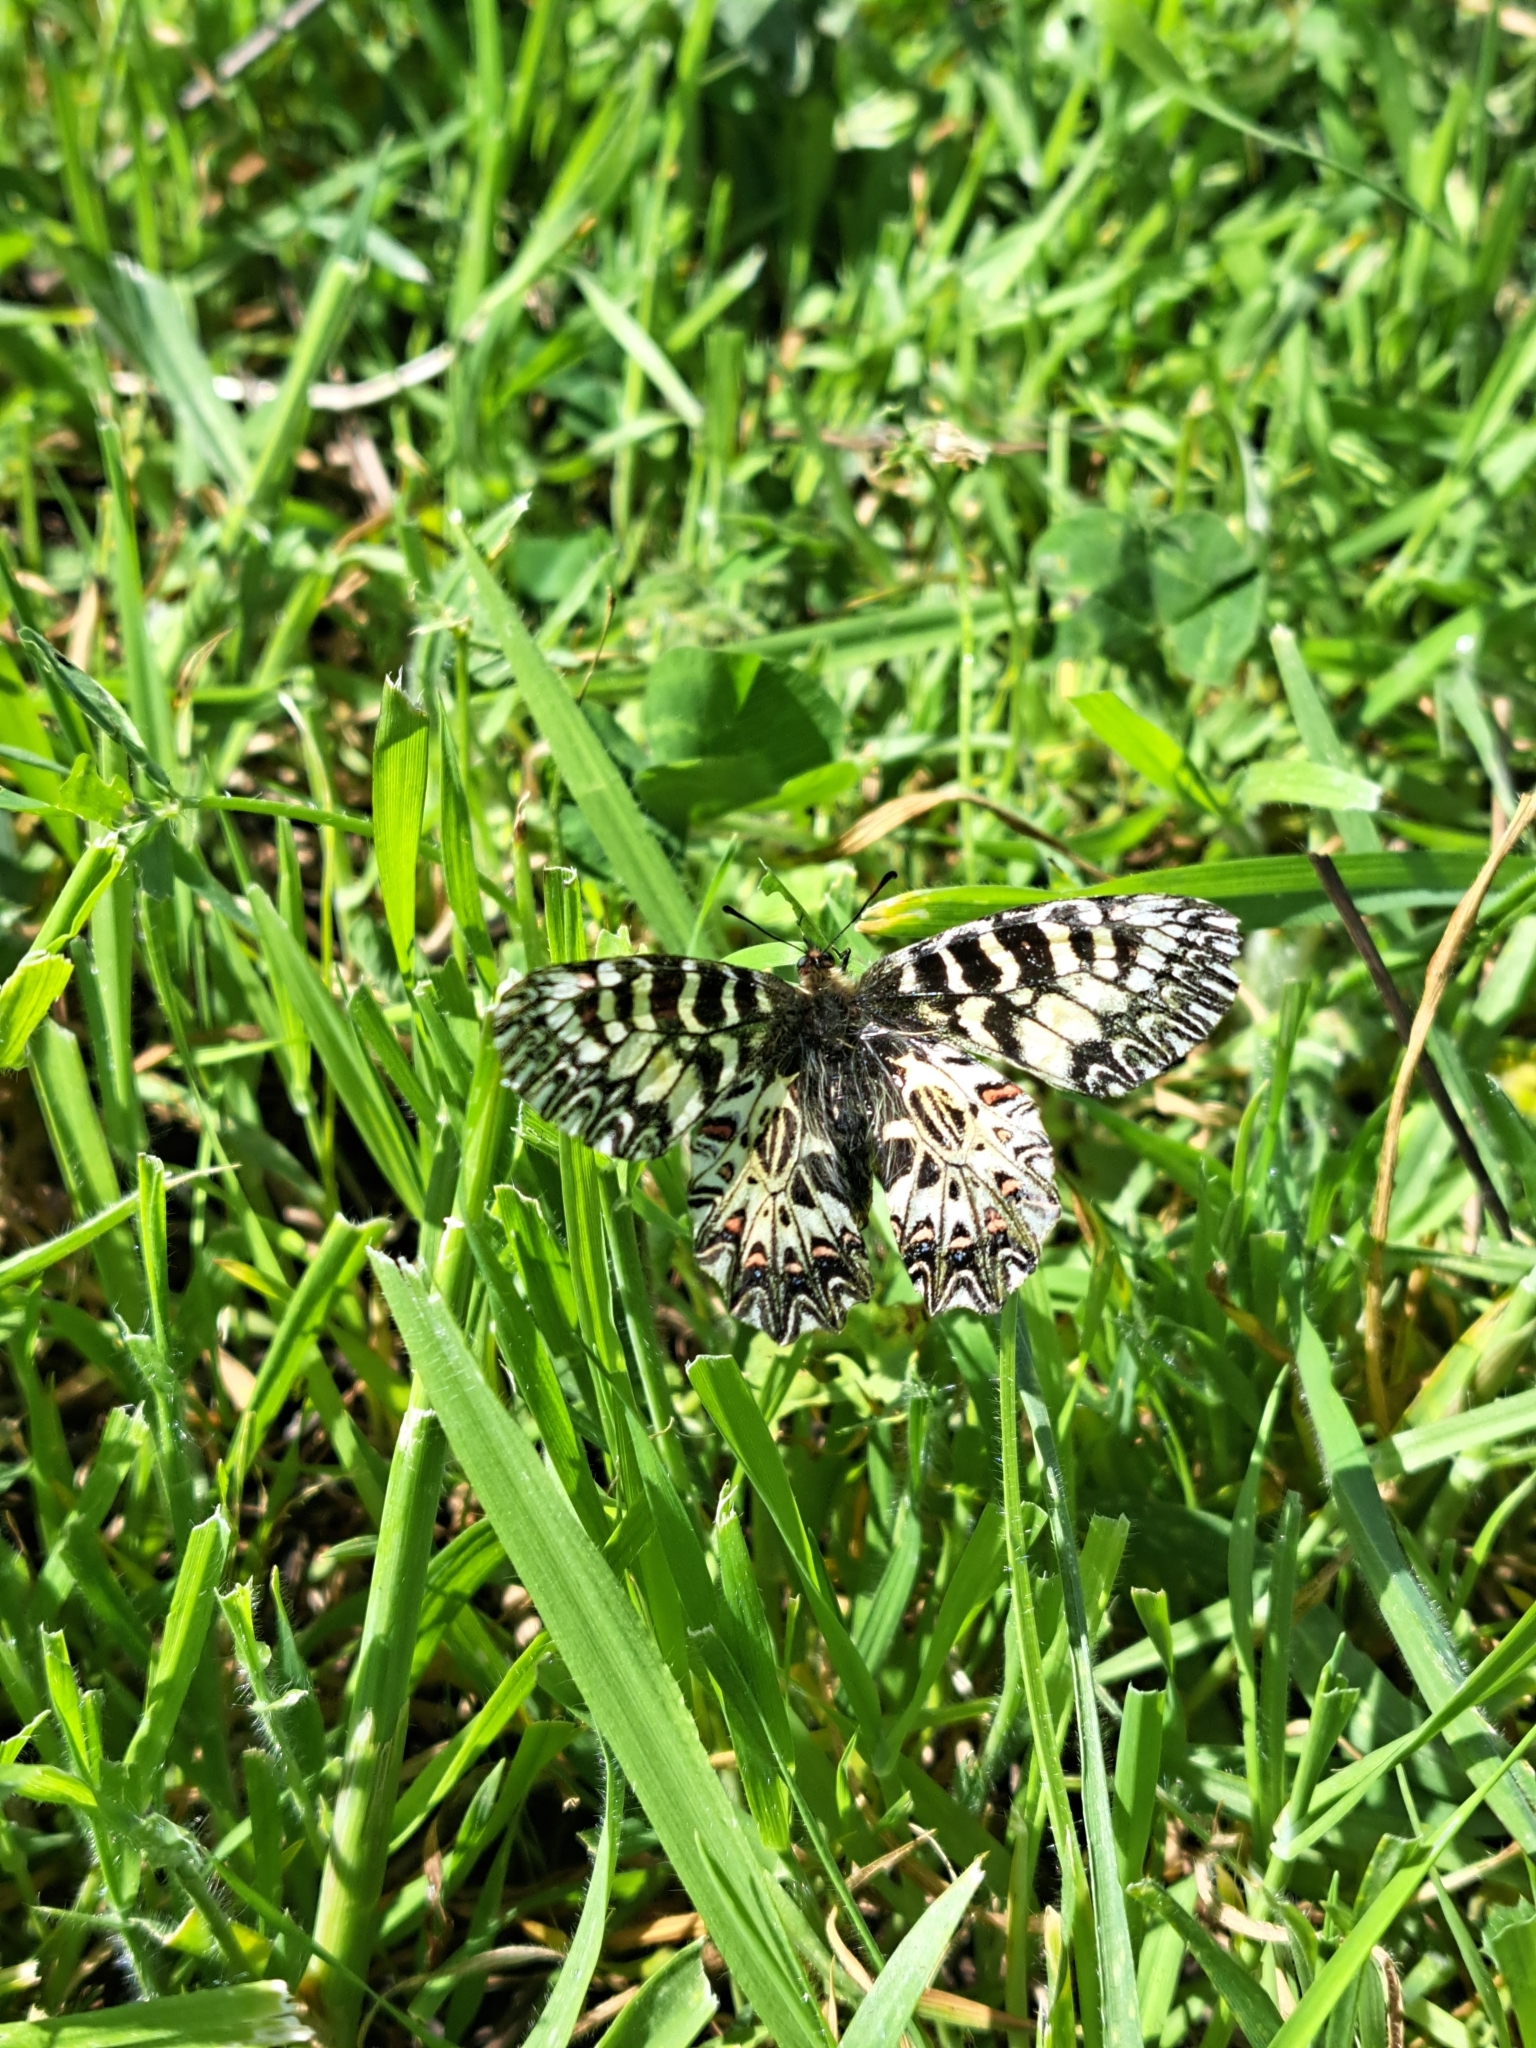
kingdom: Animalia
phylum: Arthropoda
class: Insecta
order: Lepidoptera
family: Papilionidae
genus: Zerynthia
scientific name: Zerynthia cassandra
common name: Italian festoon
